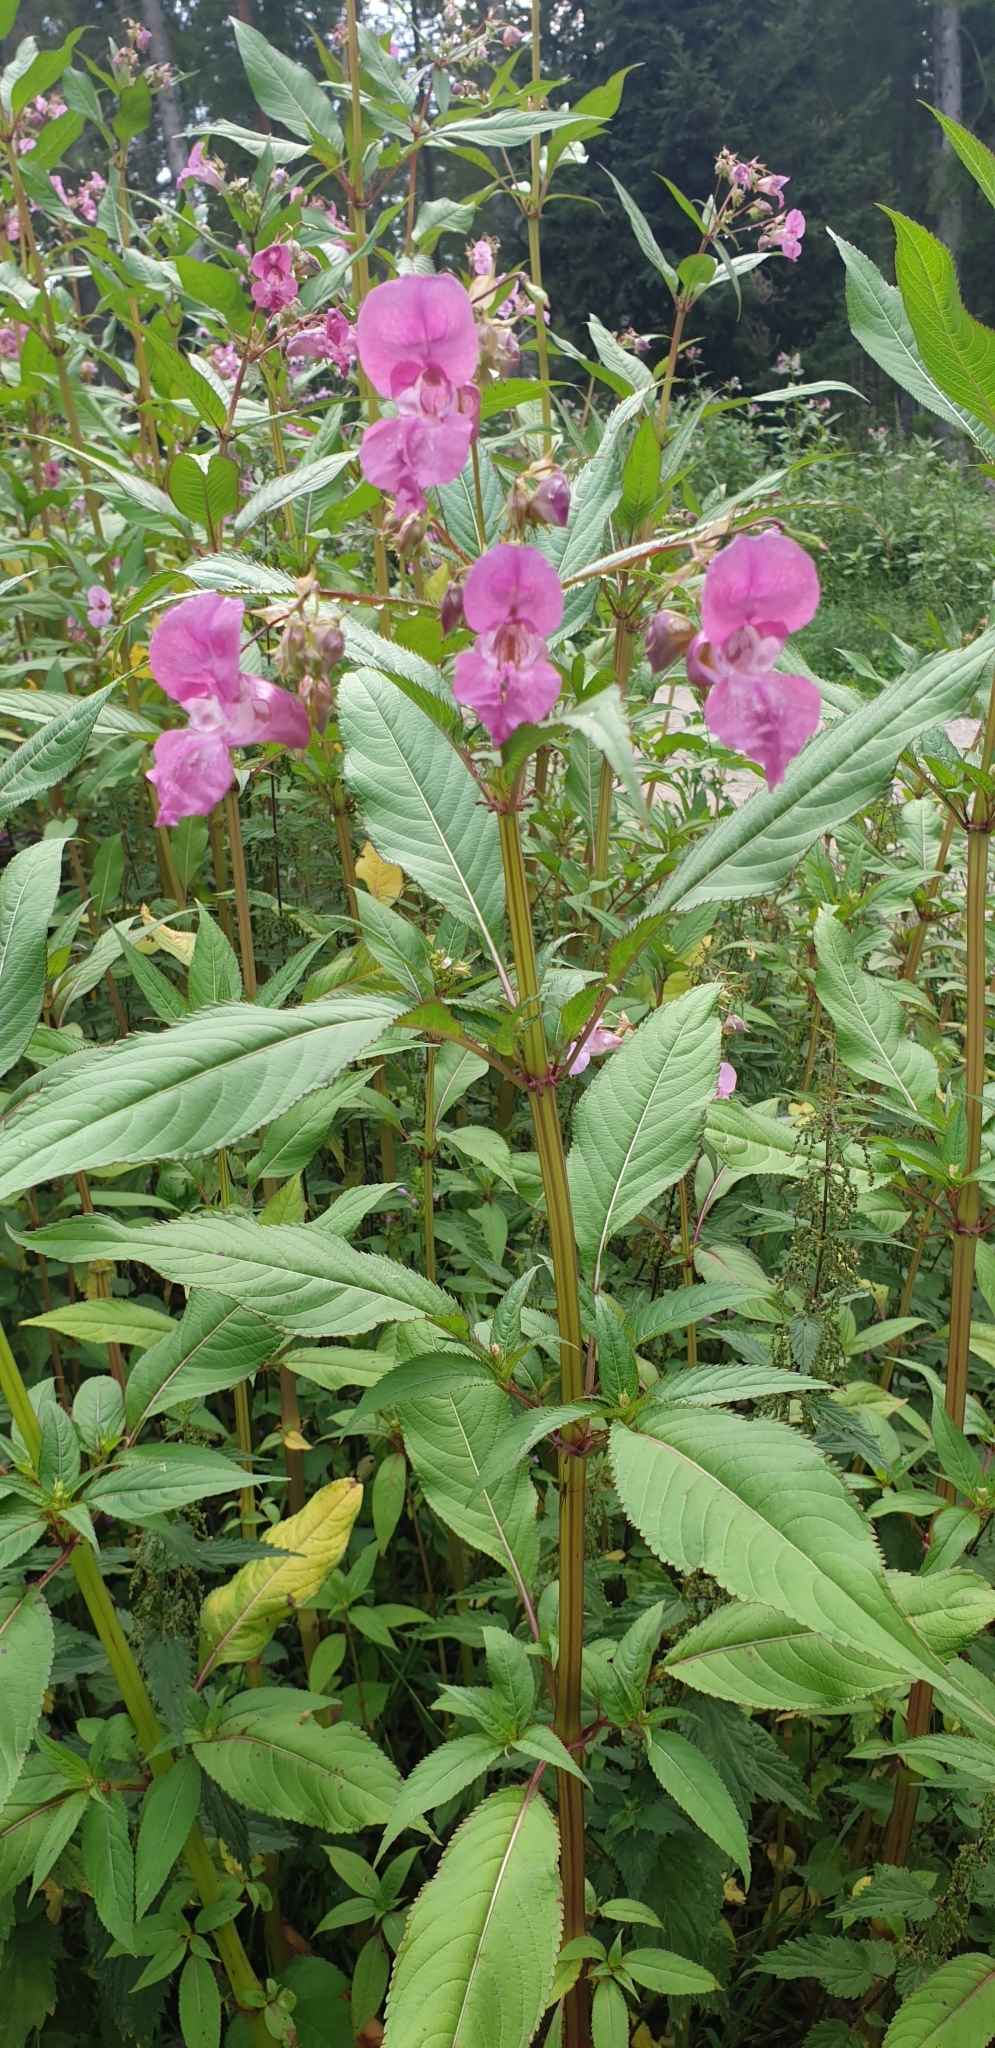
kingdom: Plantae
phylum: Tracheophyta
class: Magnoliopsida
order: Ericales
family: Balsaminaceae
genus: Impatiens
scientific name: Impatiens glandulifera
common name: Himalayan balsam
